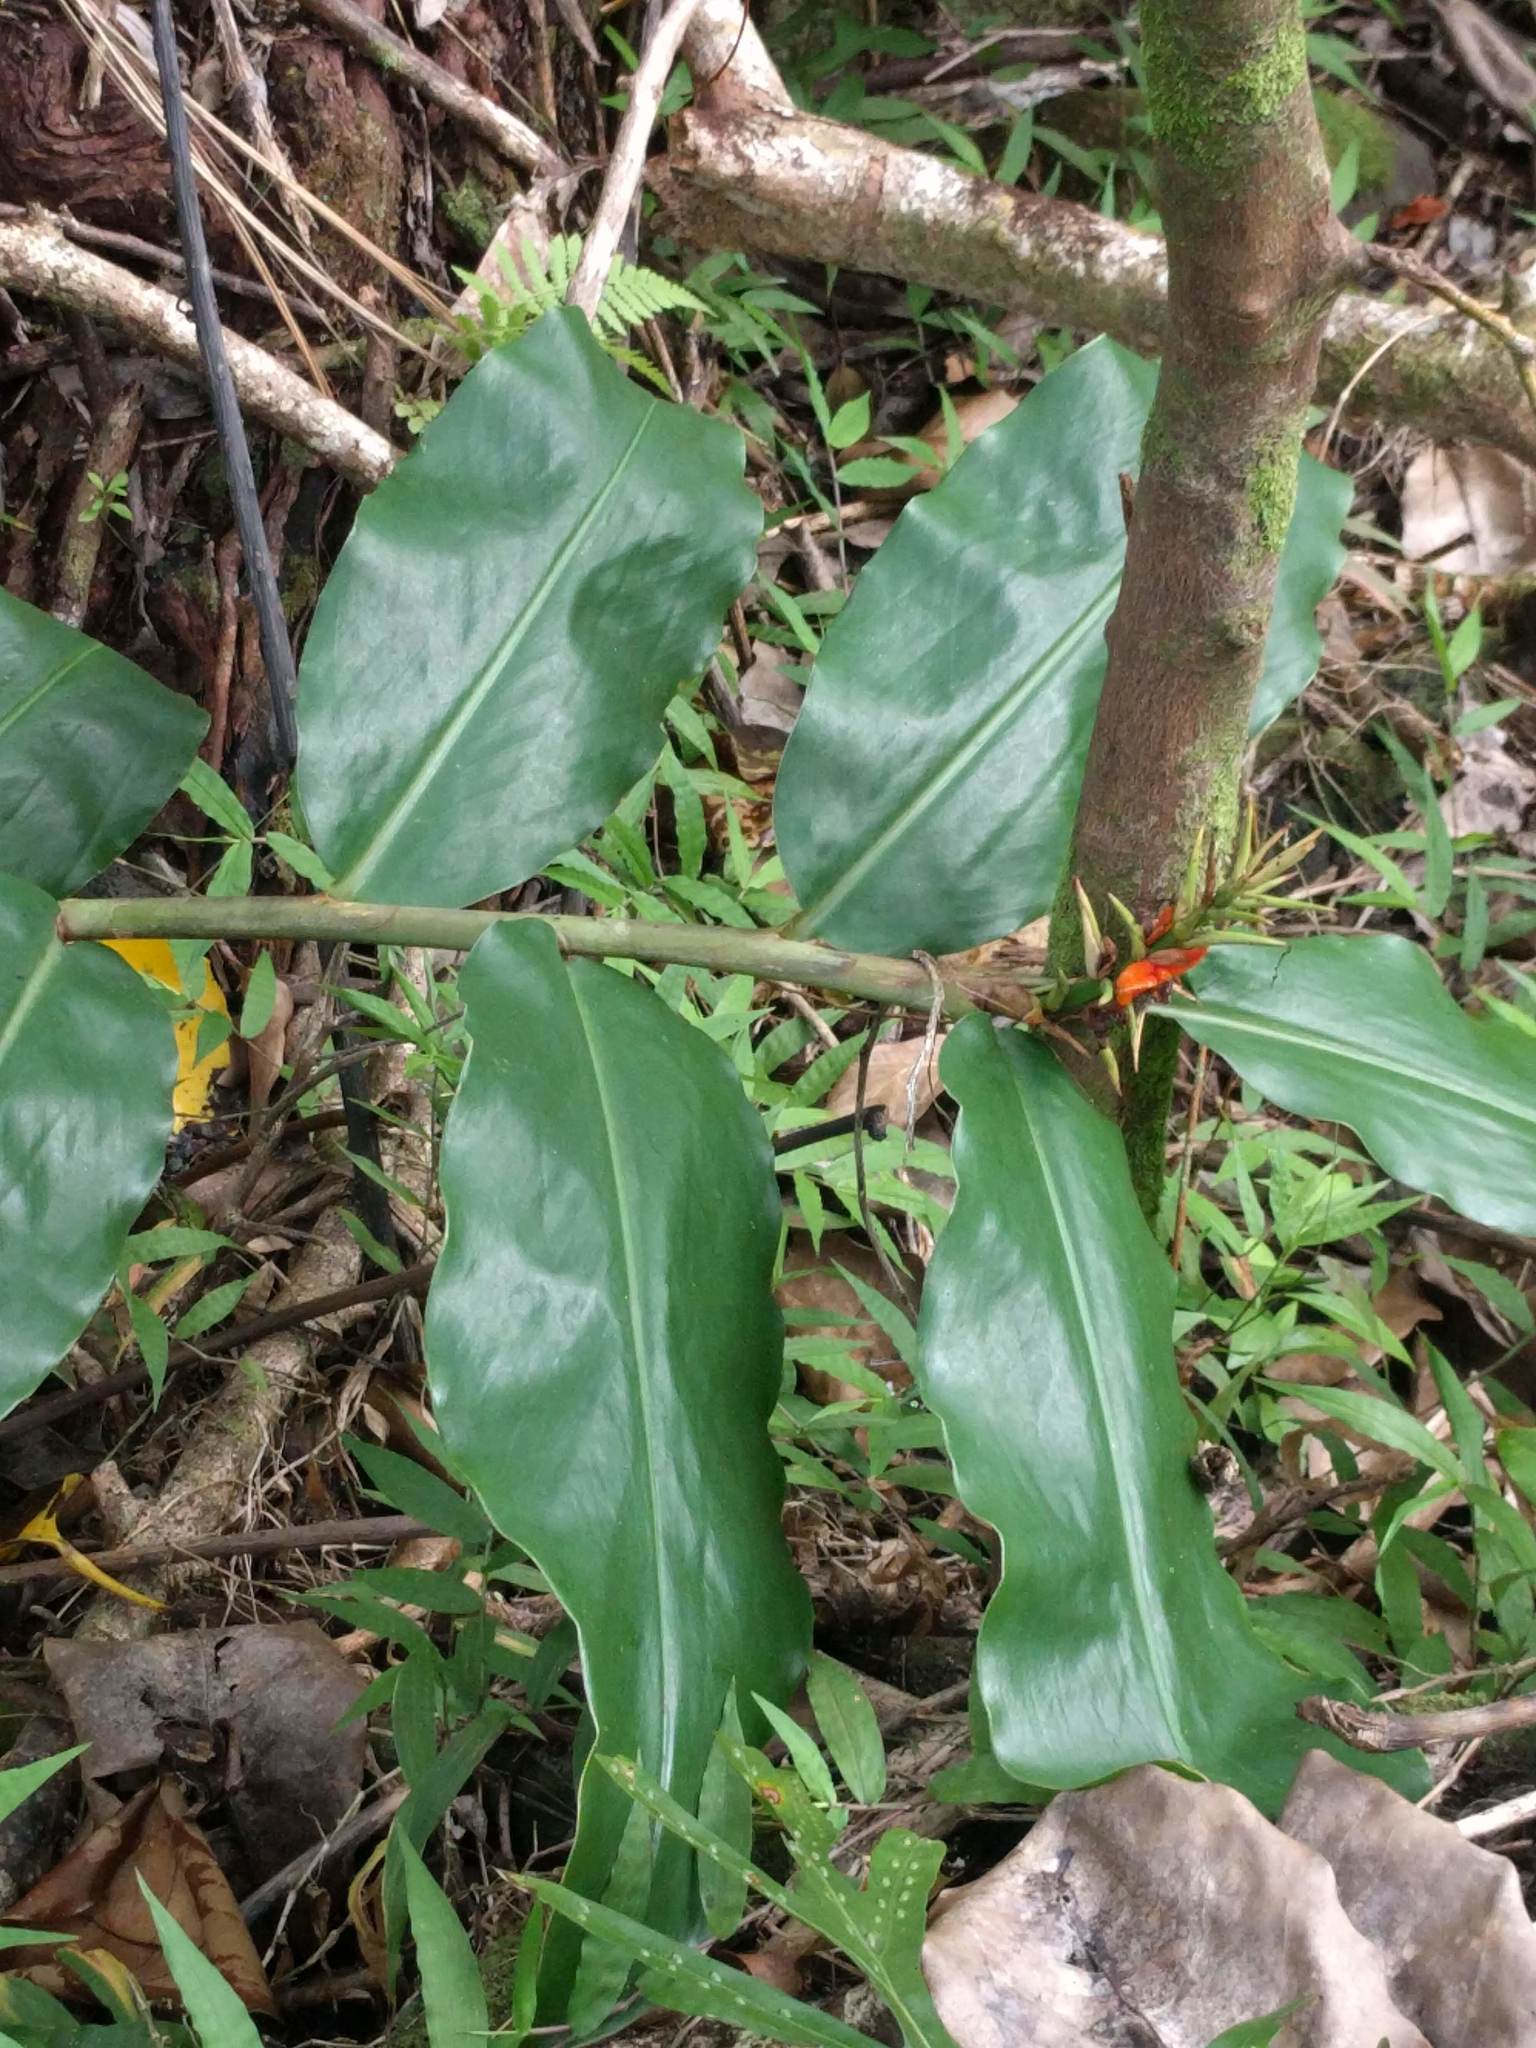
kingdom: Plantae
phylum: Tracheophyta
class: Liliopsida
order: Zingiberales
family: Zingiberaceae
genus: Hedychium
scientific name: Hedychium gardnerianum
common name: Himalayan ginger
